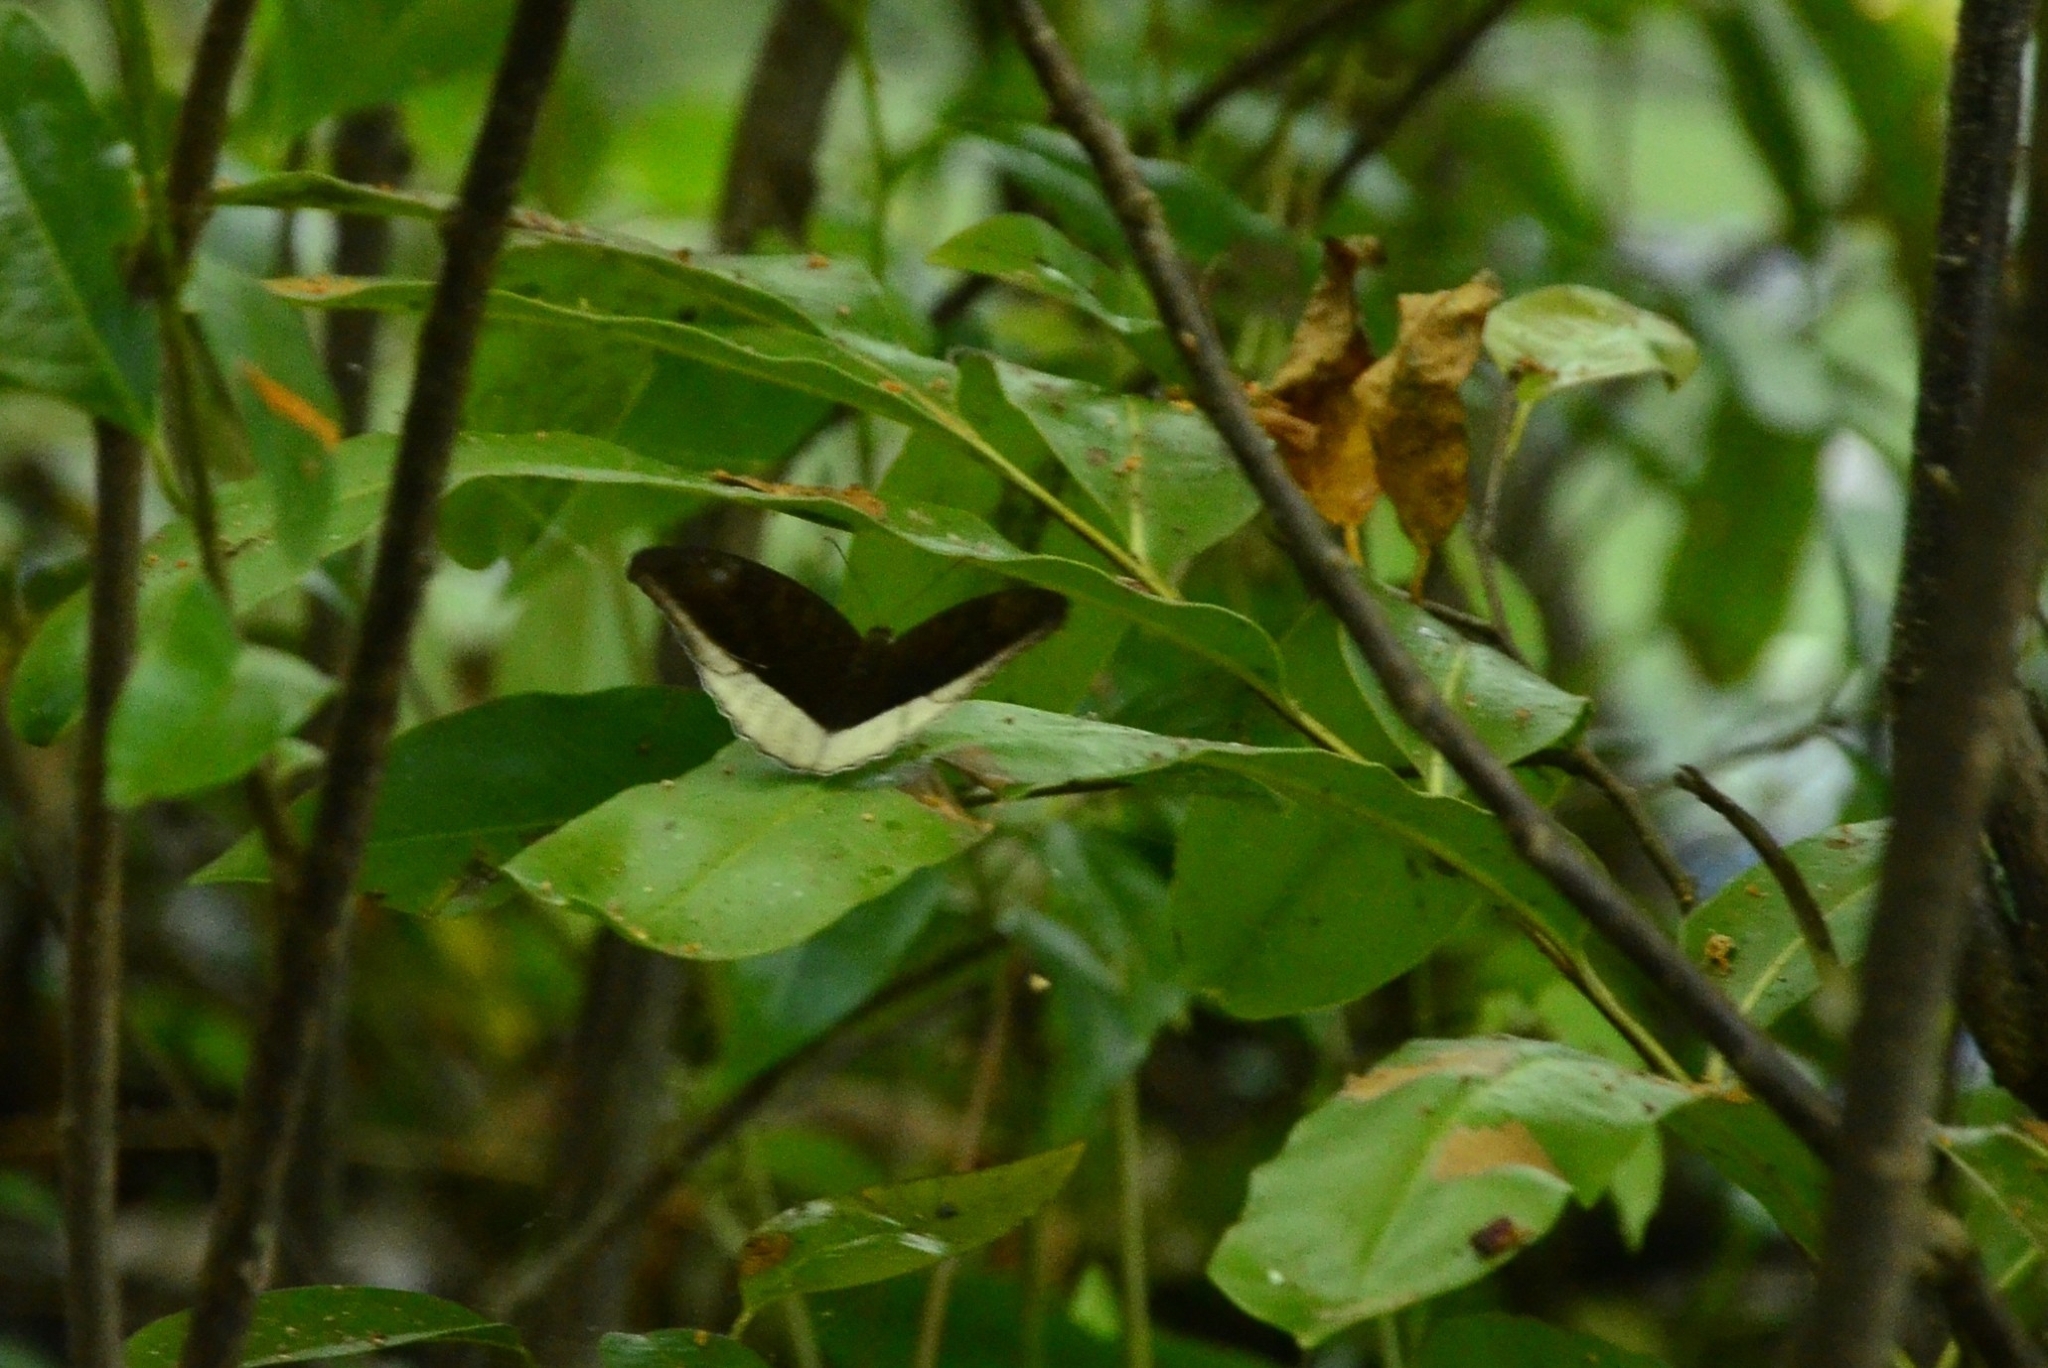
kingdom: Animalia
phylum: Arthropoda
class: Insecta
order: Lepidoptera
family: Nymphalidae
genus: Tanaecia
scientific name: Tanaecia lepidea
